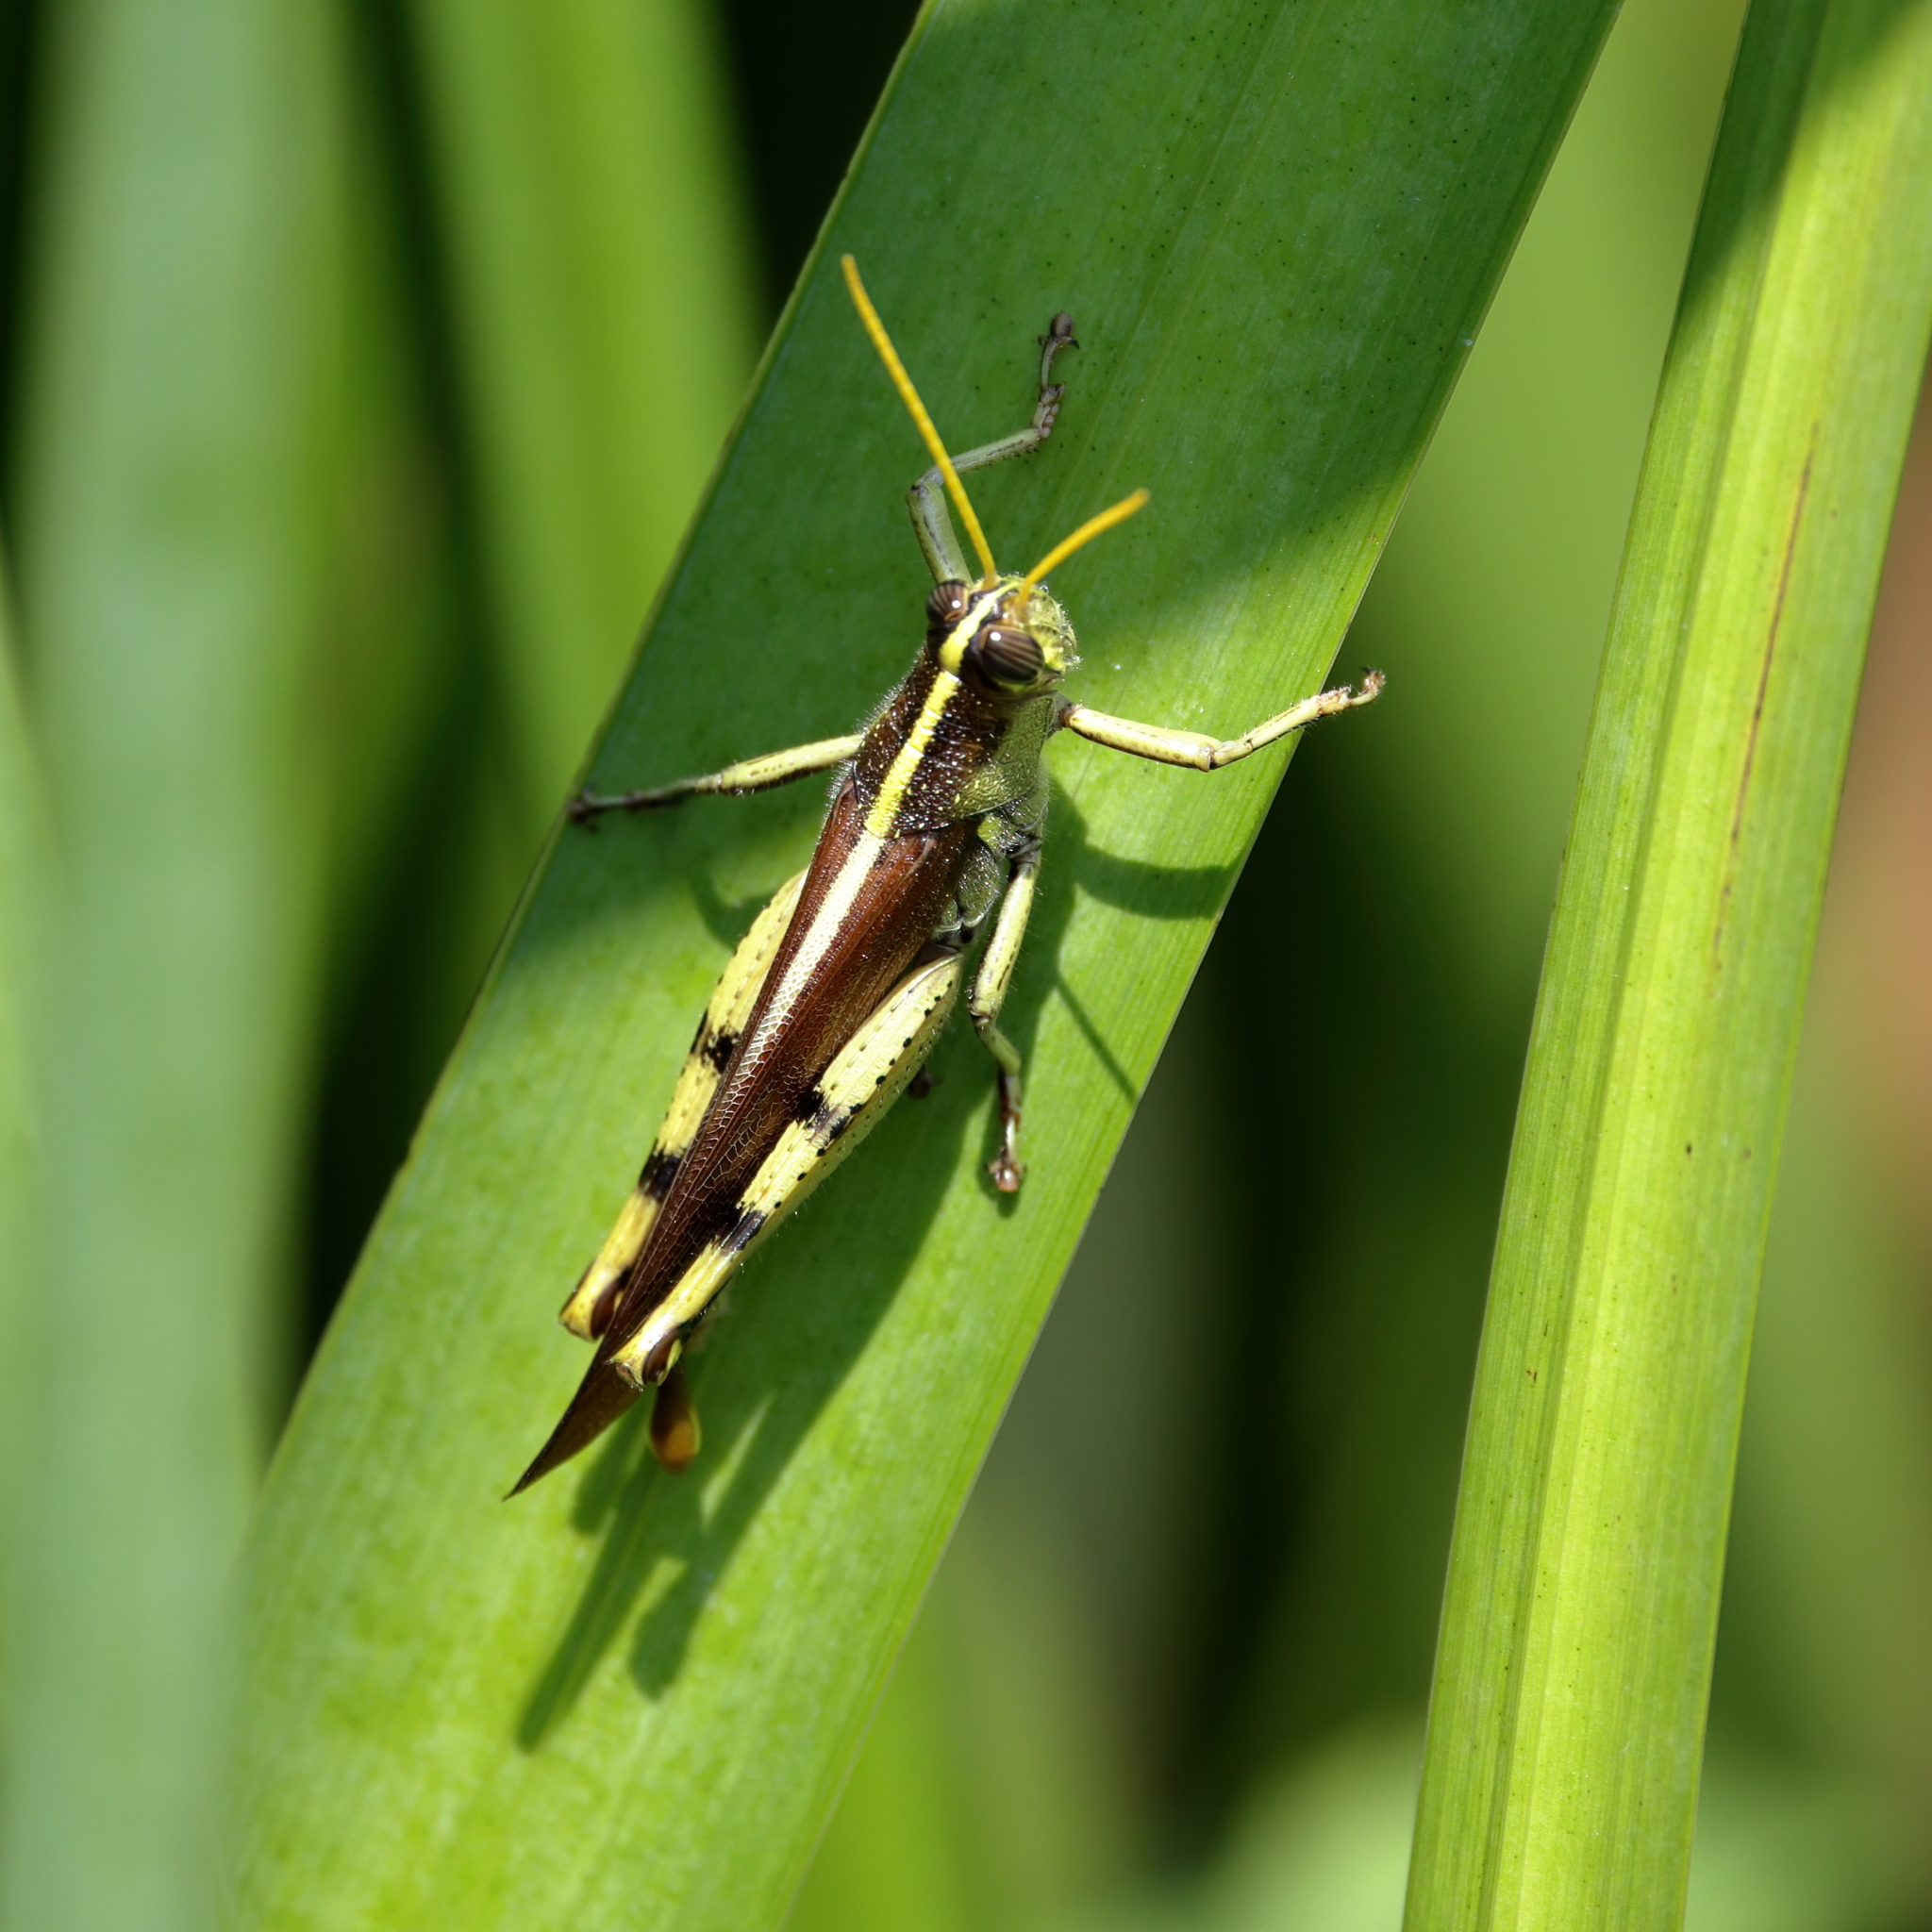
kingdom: Animalia
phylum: Arthropoda
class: Insecta
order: Orthoptera
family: Acrididae
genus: Schistocerca
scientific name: Schistocerca obscura
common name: Obscure bird grasshopper
